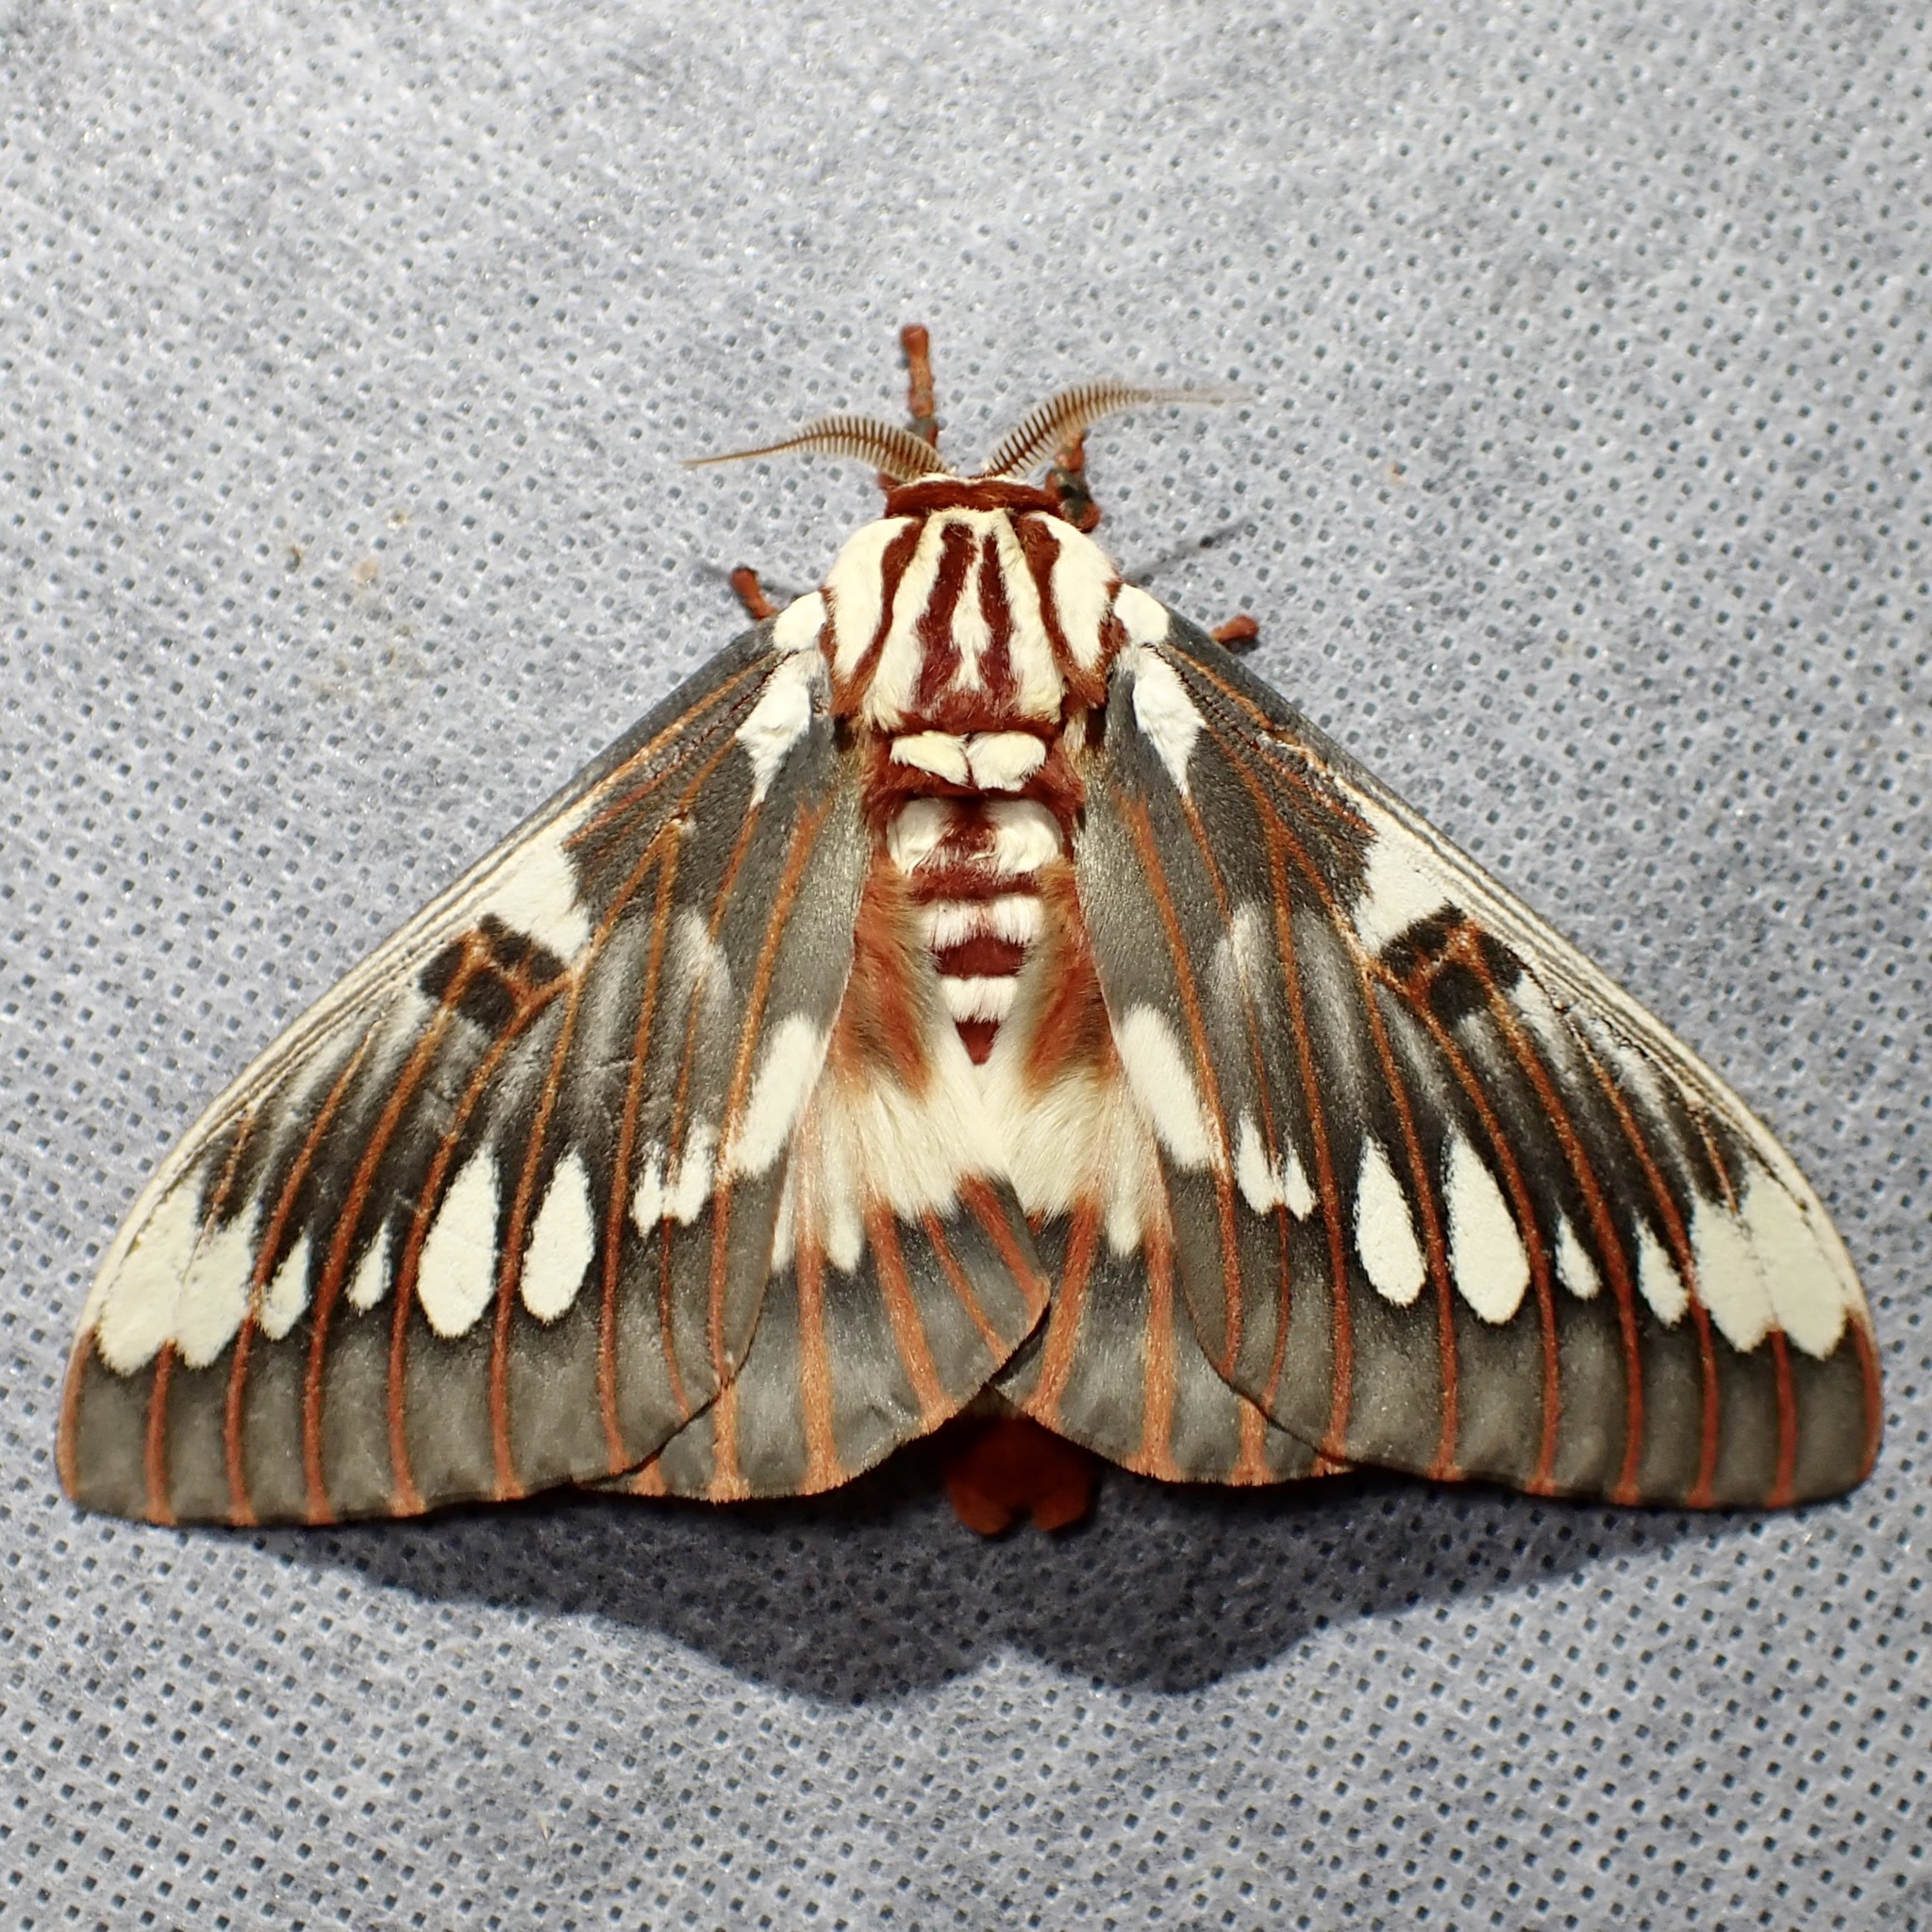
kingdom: Animalia
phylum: Arthropoda
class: Insecta
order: Lepidoptera
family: Saturniidae
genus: Citheronia
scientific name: Citheronia splendens
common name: Splendid royal moth
